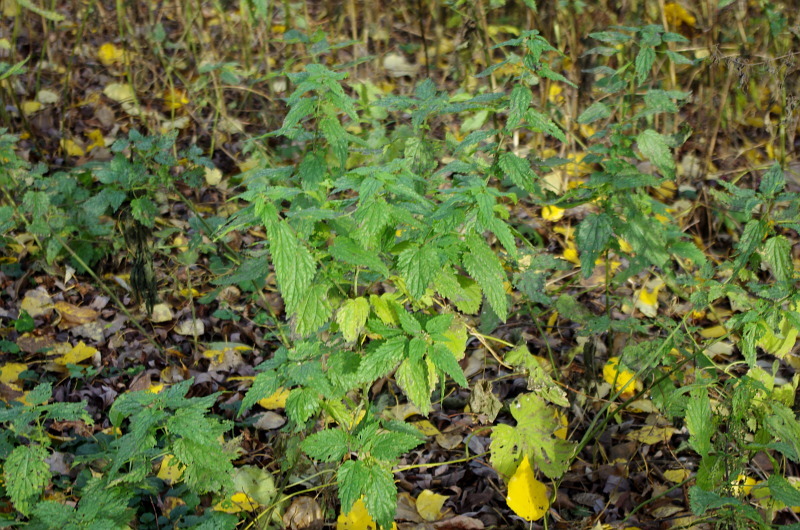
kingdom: Plantae
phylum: Tracheophyta
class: Magnoliopsida
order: Rosales
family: Urticaceae
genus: Urtica
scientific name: Urtica dioica
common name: Common nettle
